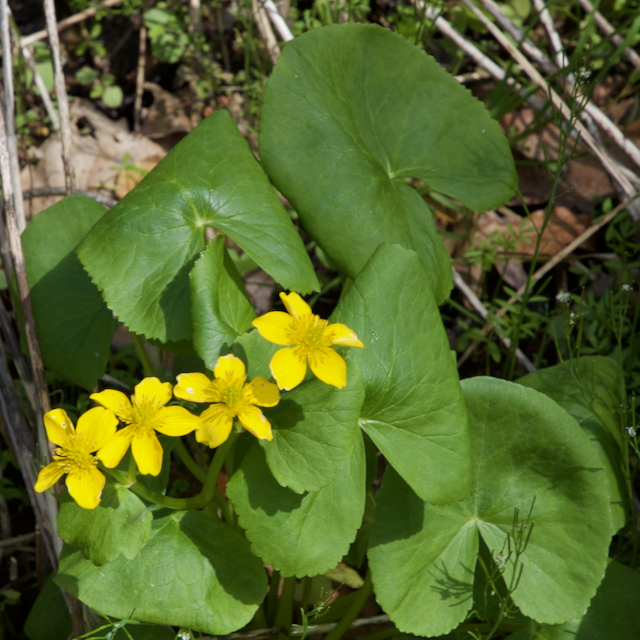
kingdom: Plantae
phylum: Tracheophyta
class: Magnoliopsida
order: Ranunculales
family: Ranunculaceae
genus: Caltha
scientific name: Caltha palustris
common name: Marsh marigold
